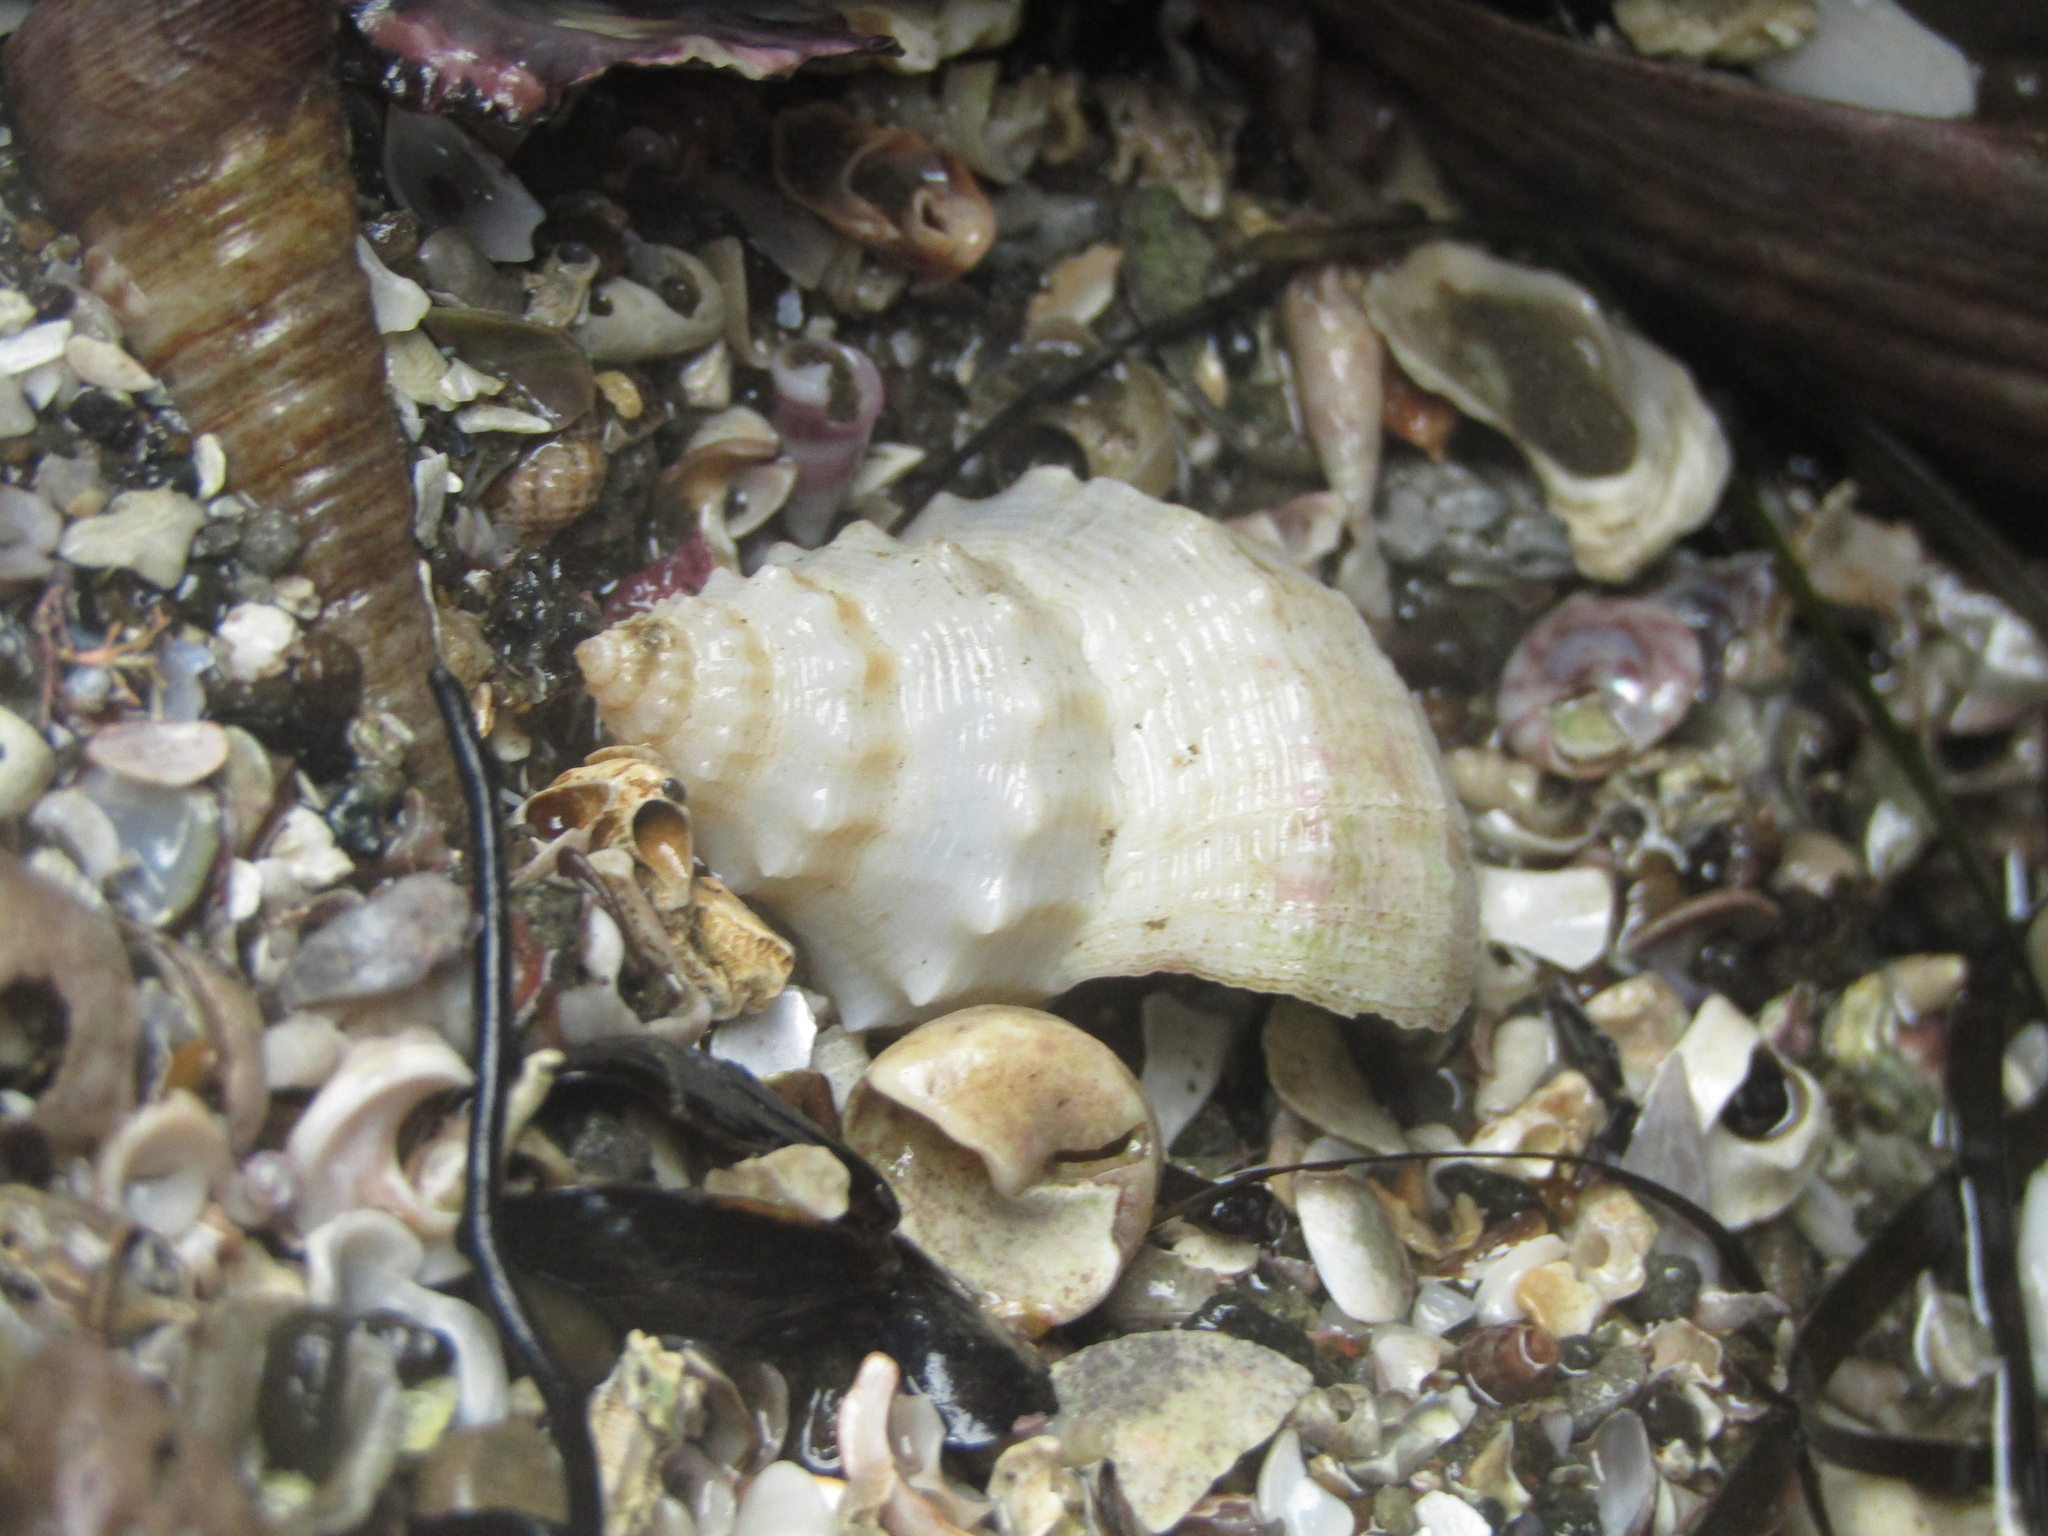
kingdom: Animalia
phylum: Mollusca
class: Gastropoda
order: Neogastropoda
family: Prosiphonidae
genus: Austrofusus
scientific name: Austrofusus glans
